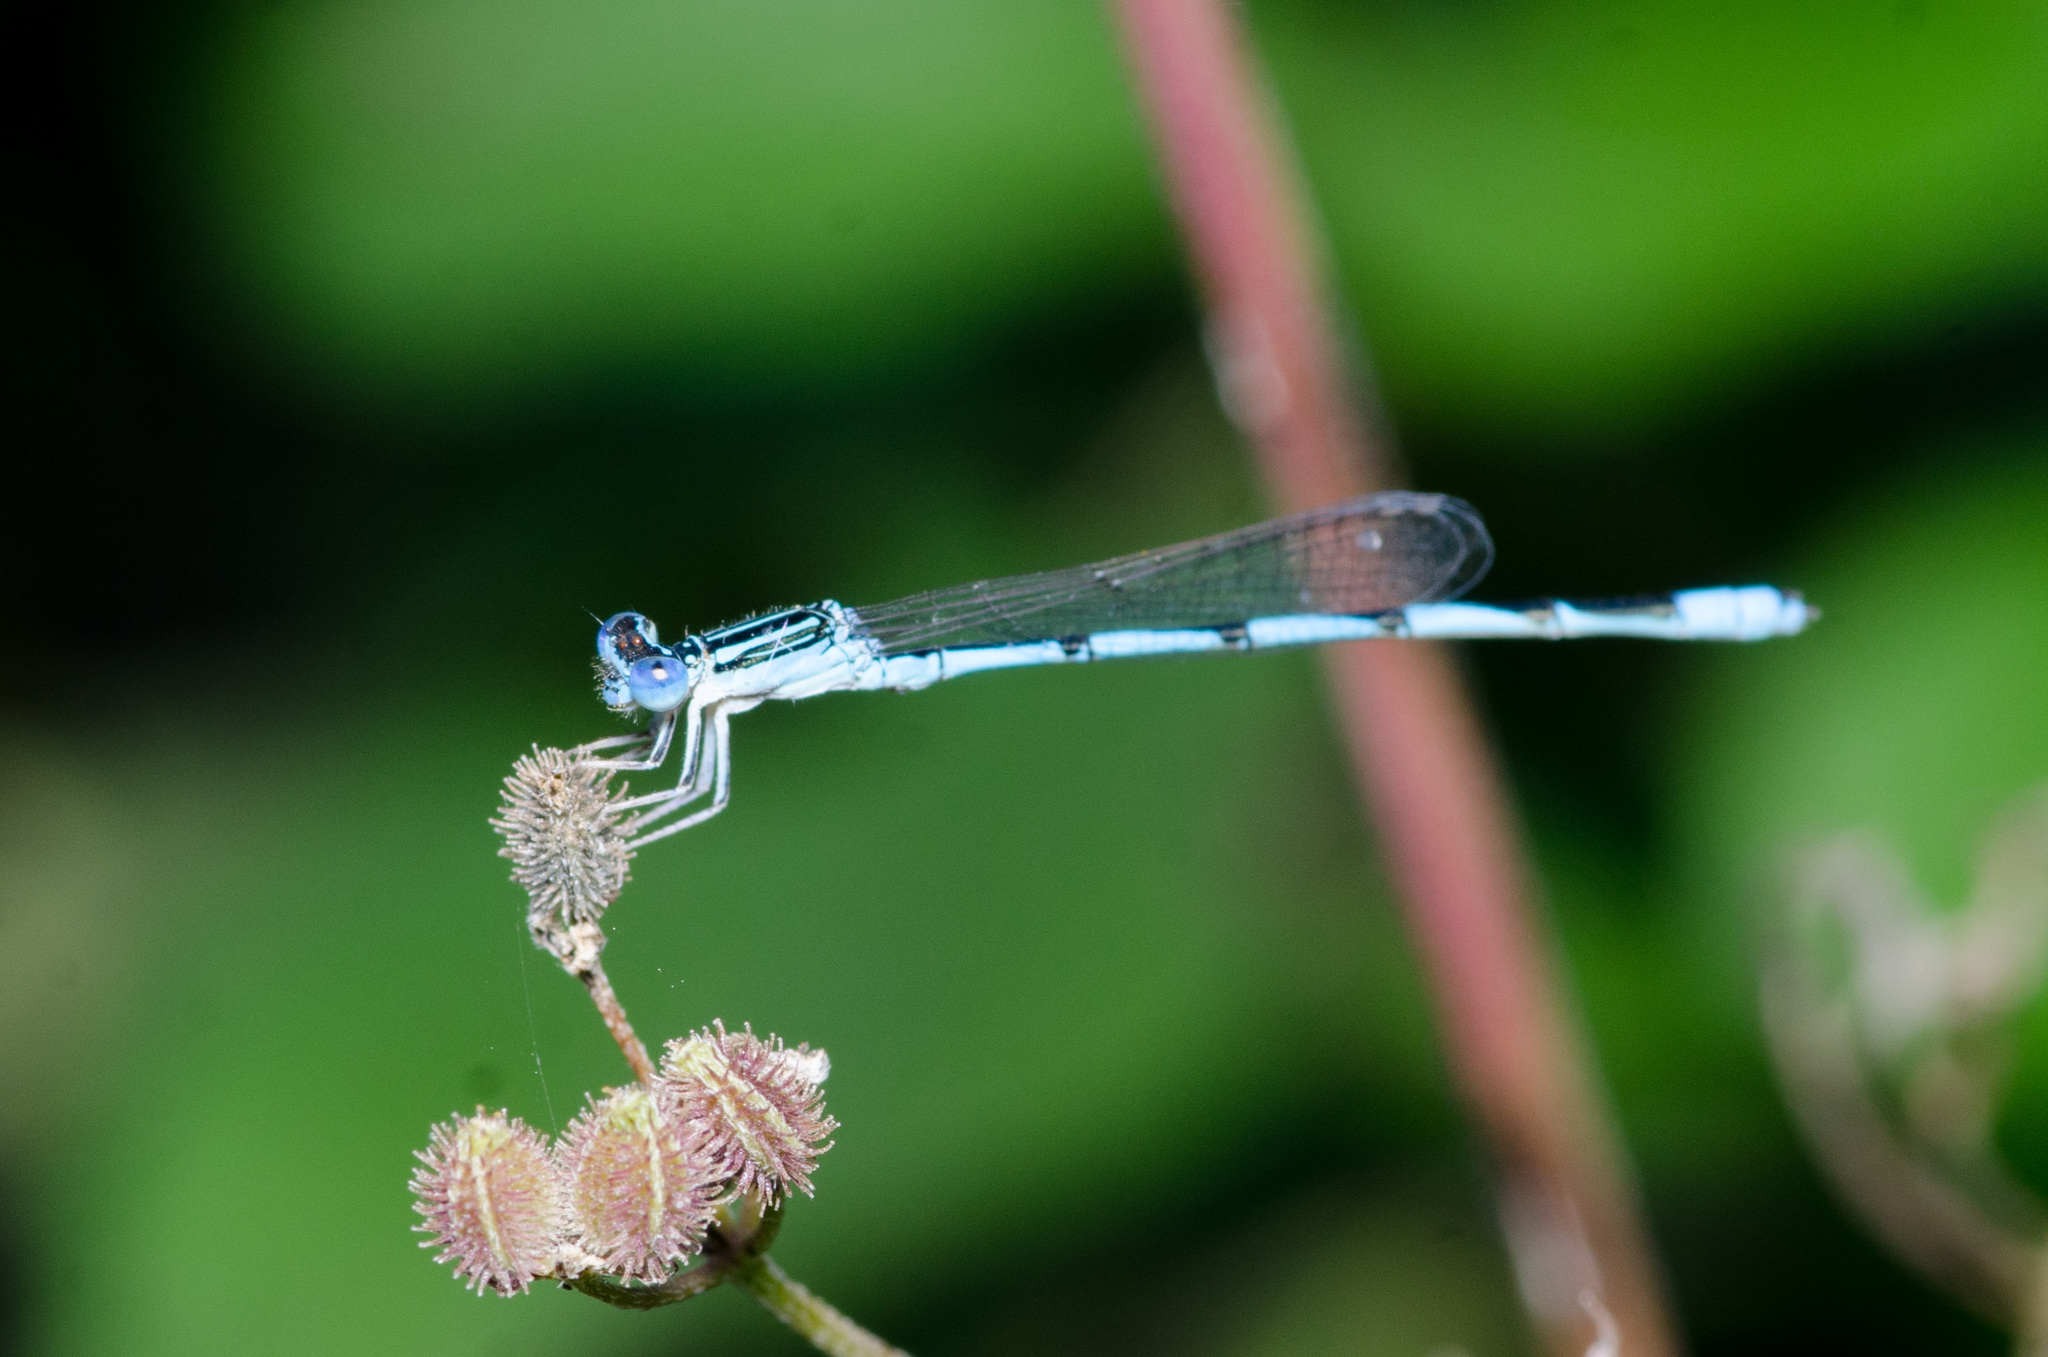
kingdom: Animalia
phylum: Arthropoda
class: Insecta
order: Odonata
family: Coenagrionidae
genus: Enallagma
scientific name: Enallagma basidens
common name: Double-striped bluet
